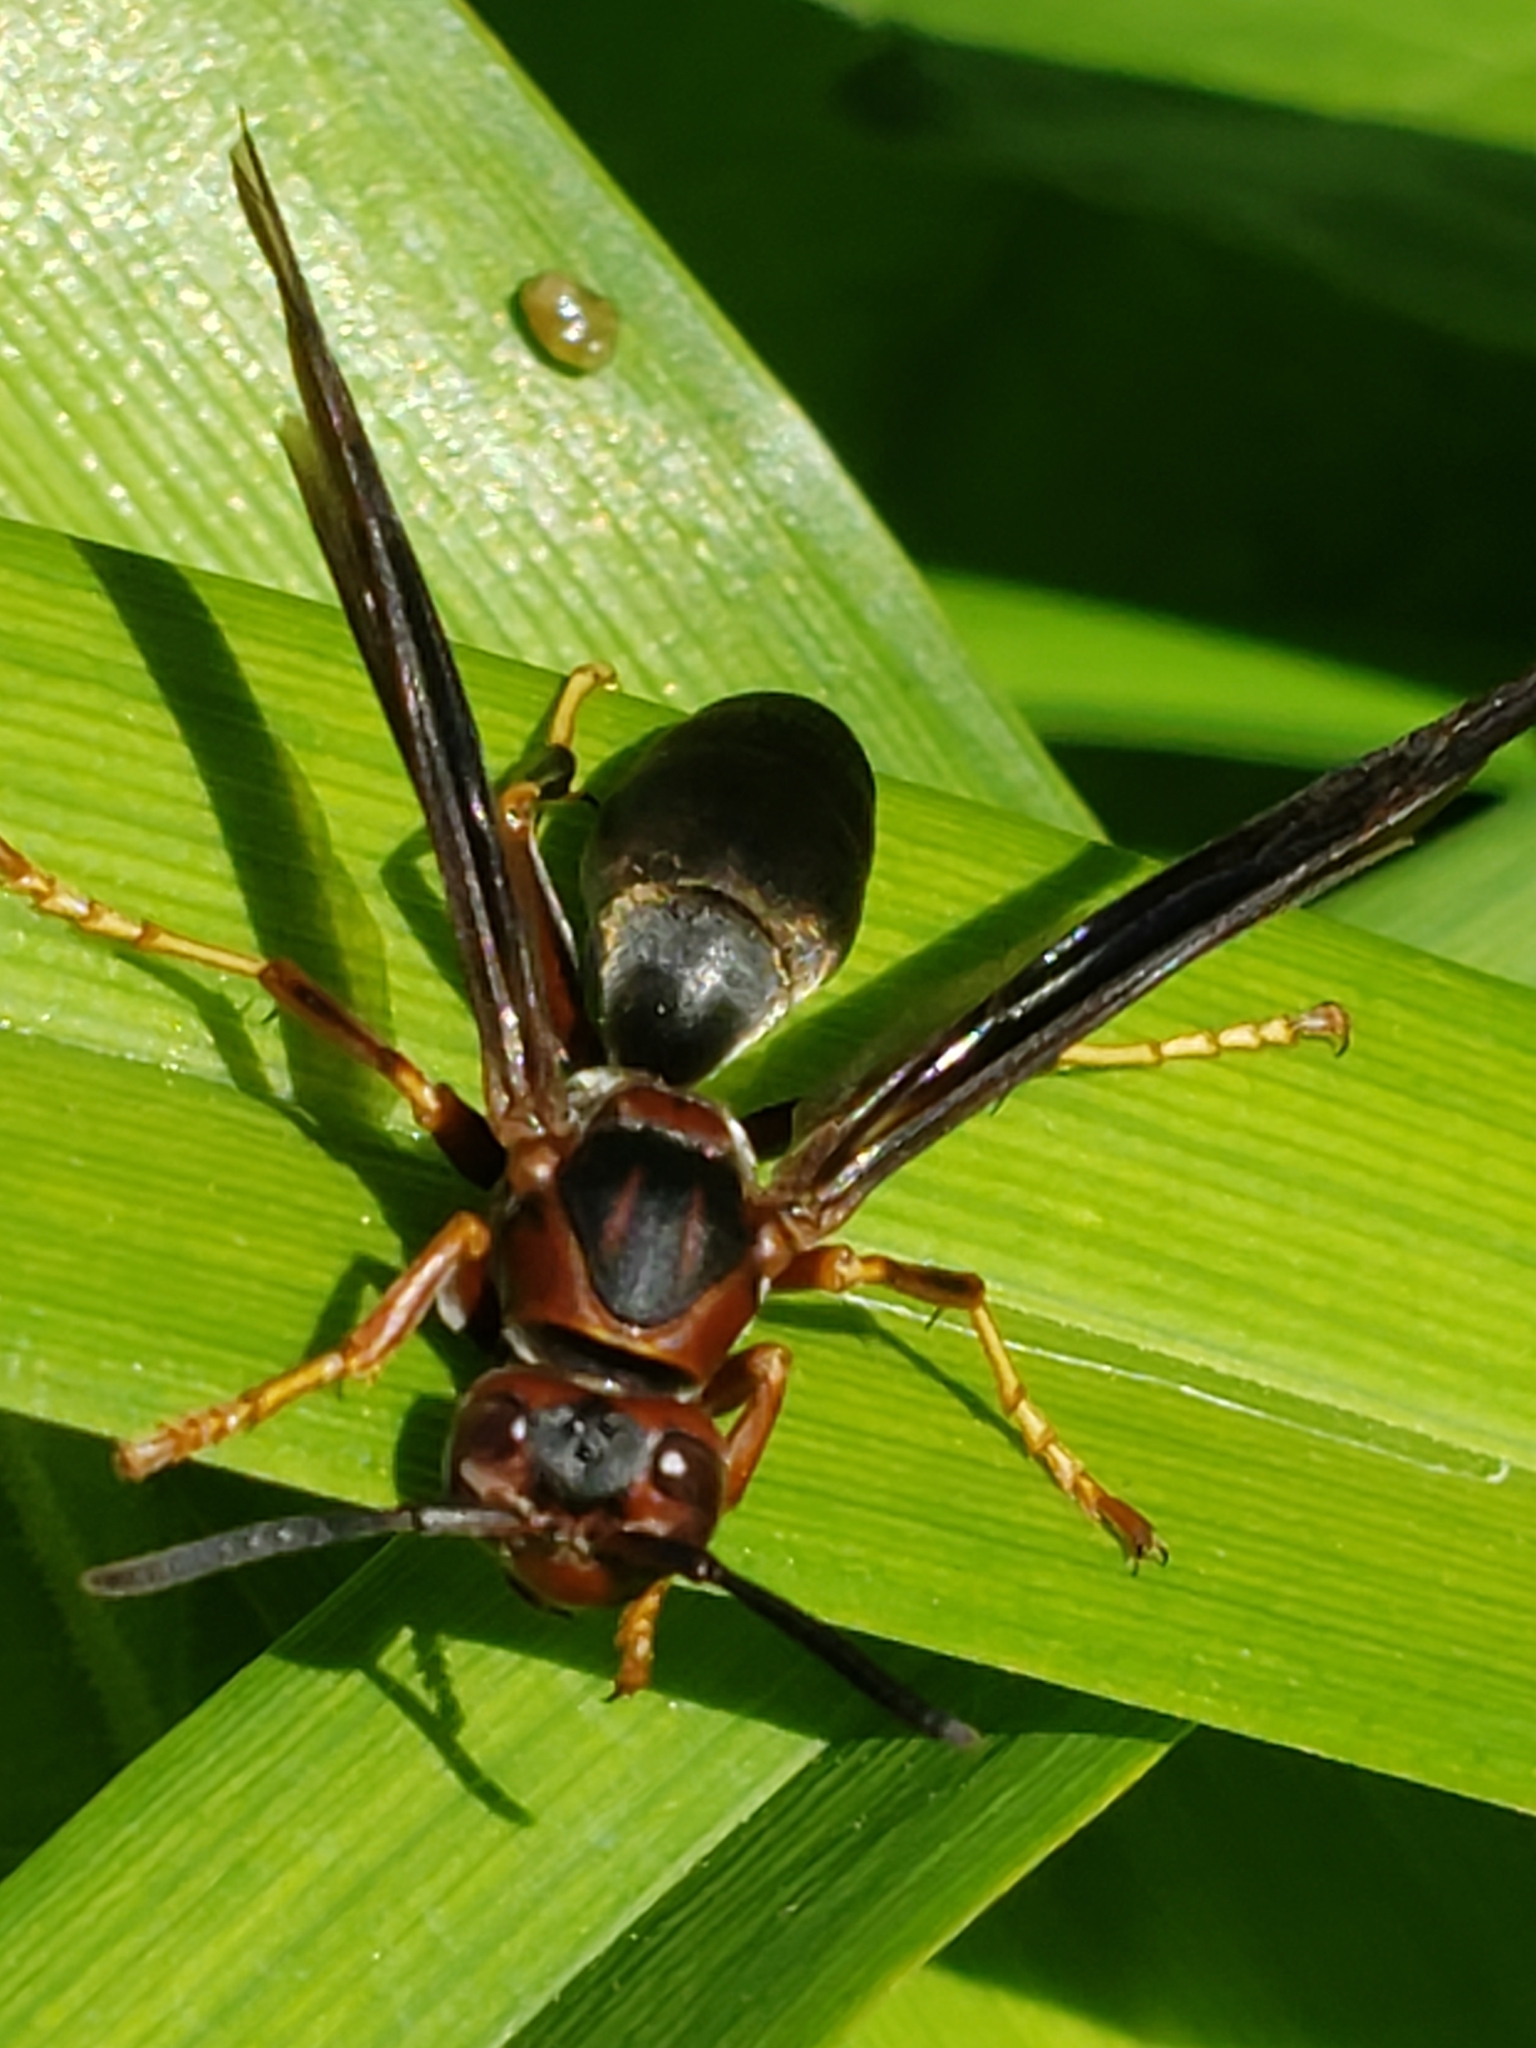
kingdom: Animalia
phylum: Arthropoda
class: Insecta
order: Hymenoptera
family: Eumenidae
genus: Polistes
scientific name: Polistes metricus
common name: Metric paper wasp
